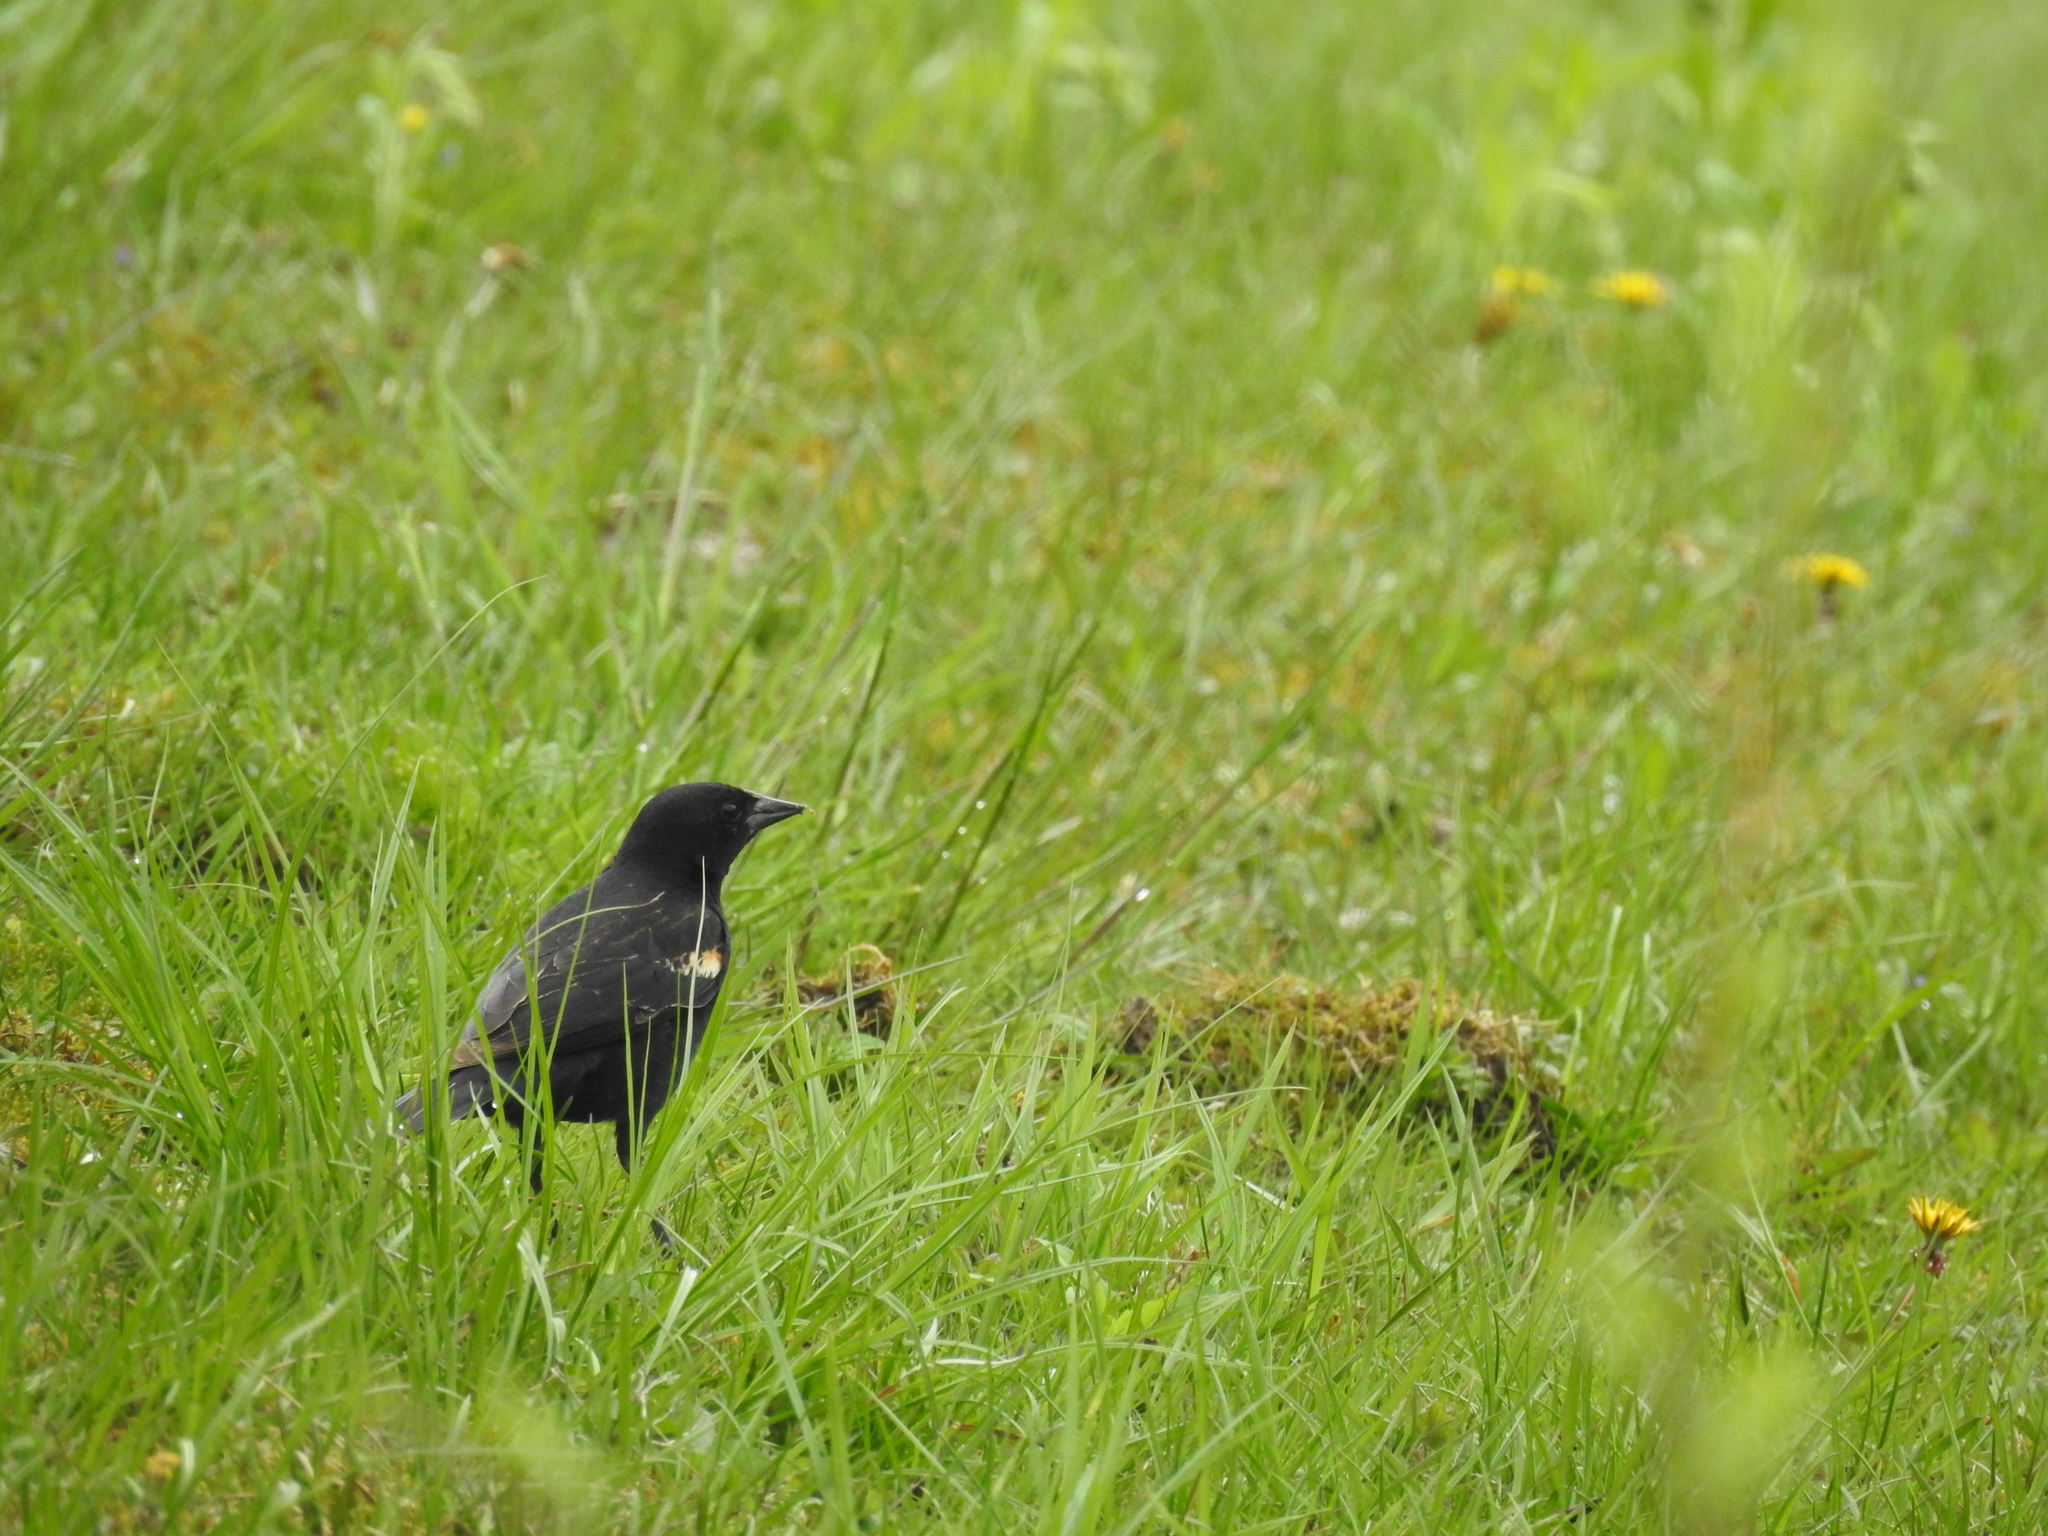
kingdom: Animalia
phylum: Chordata
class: Aves
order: Passeriformes
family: Icteridae
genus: Agelaius
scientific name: Agelaius phoeniceus
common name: Red-winged blackbird
